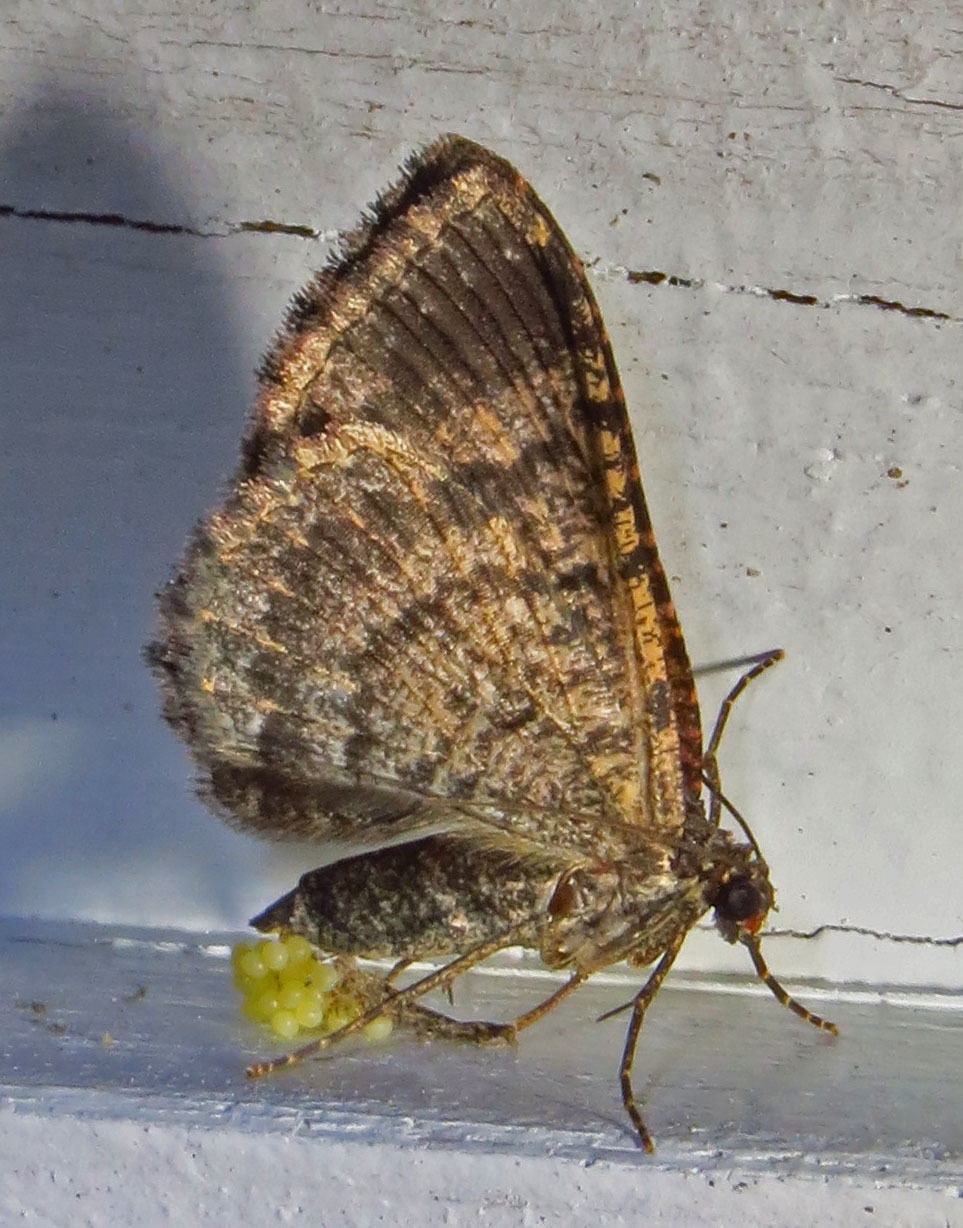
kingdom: Animalia
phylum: Arthropoda
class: Insecta
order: Lepidoptera
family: Geometridae
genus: Disclisioprocta
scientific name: Disclisioprocta stellata
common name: Somber carpet
